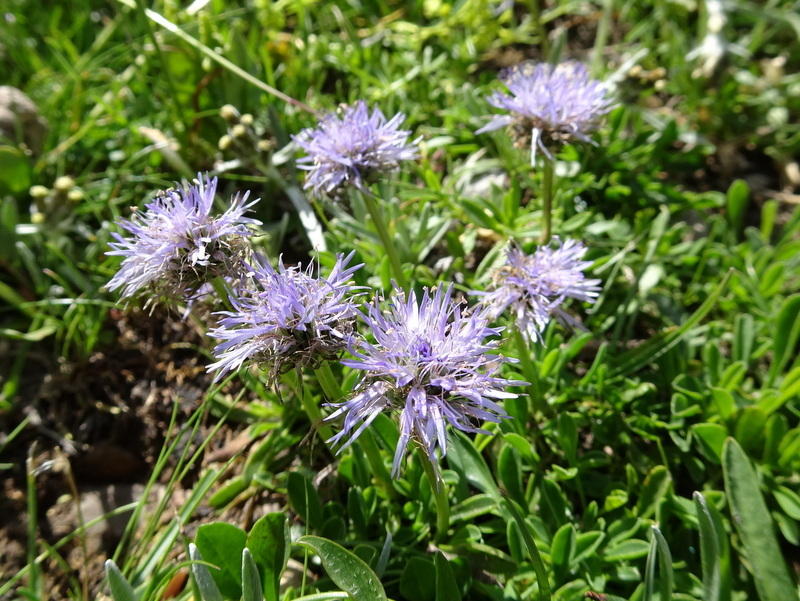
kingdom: Plantae
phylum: Tracheophyta
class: Magnoliopsida
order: Lamiales
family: Plantaginaceae
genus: Globularia
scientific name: Globularia cordifolia
